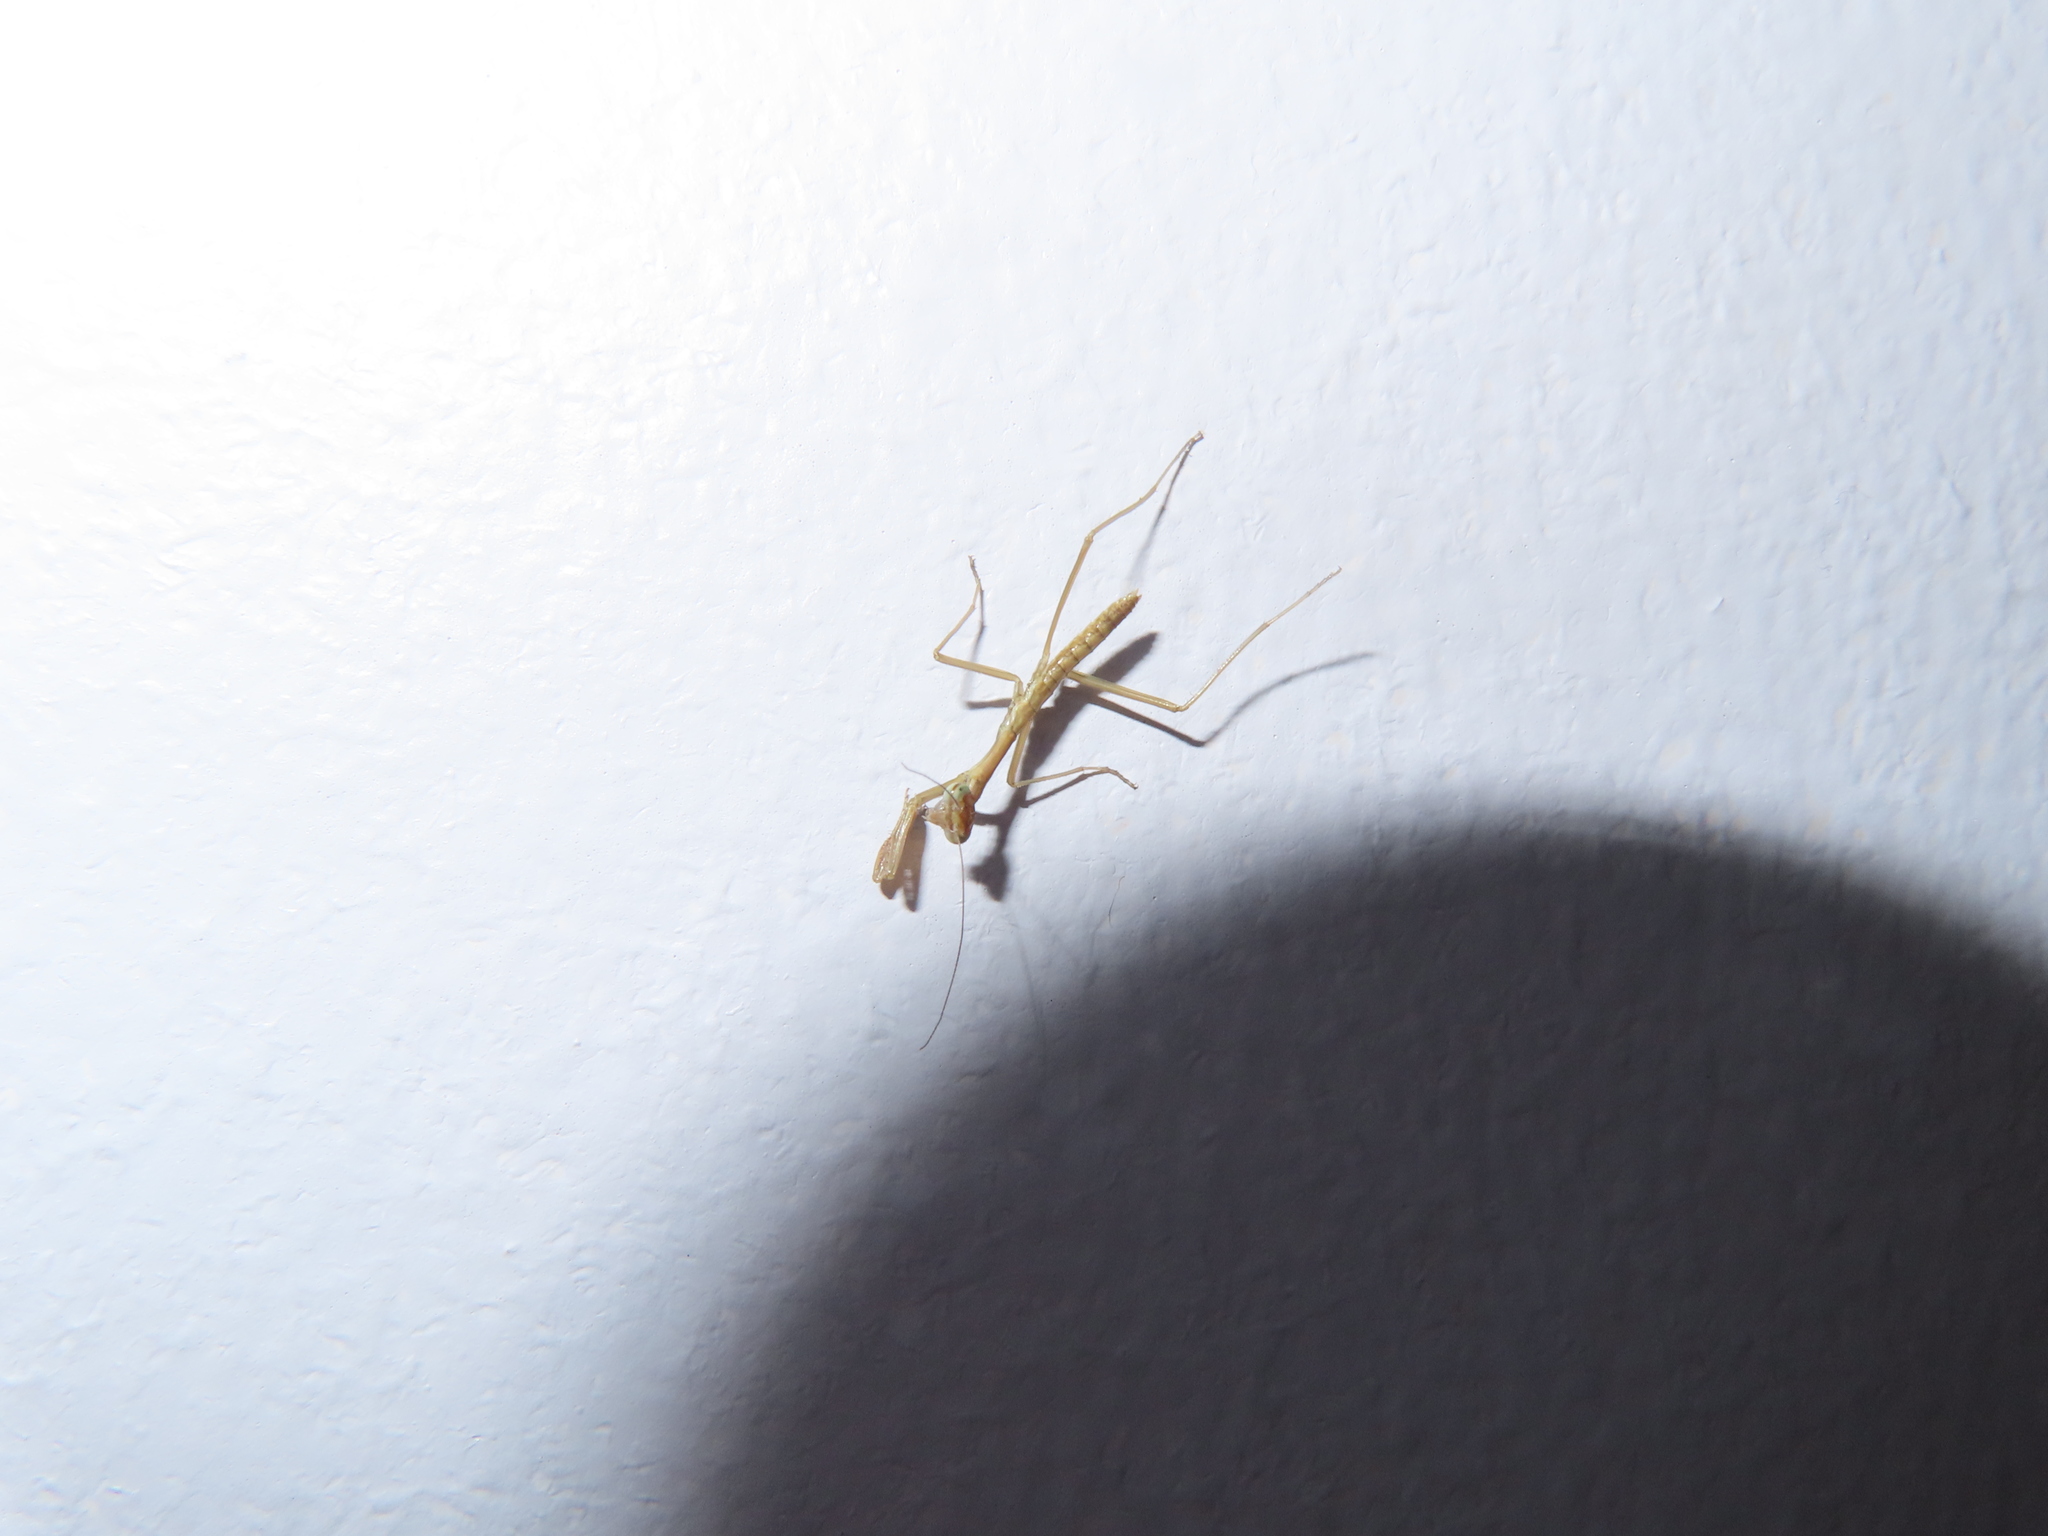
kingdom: Animalia
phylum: Arthropoda
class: Insecta
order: Mantodea
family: Mantidae
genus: Tenodera
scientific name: Tenodera sinensis
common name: Chinese mantis
